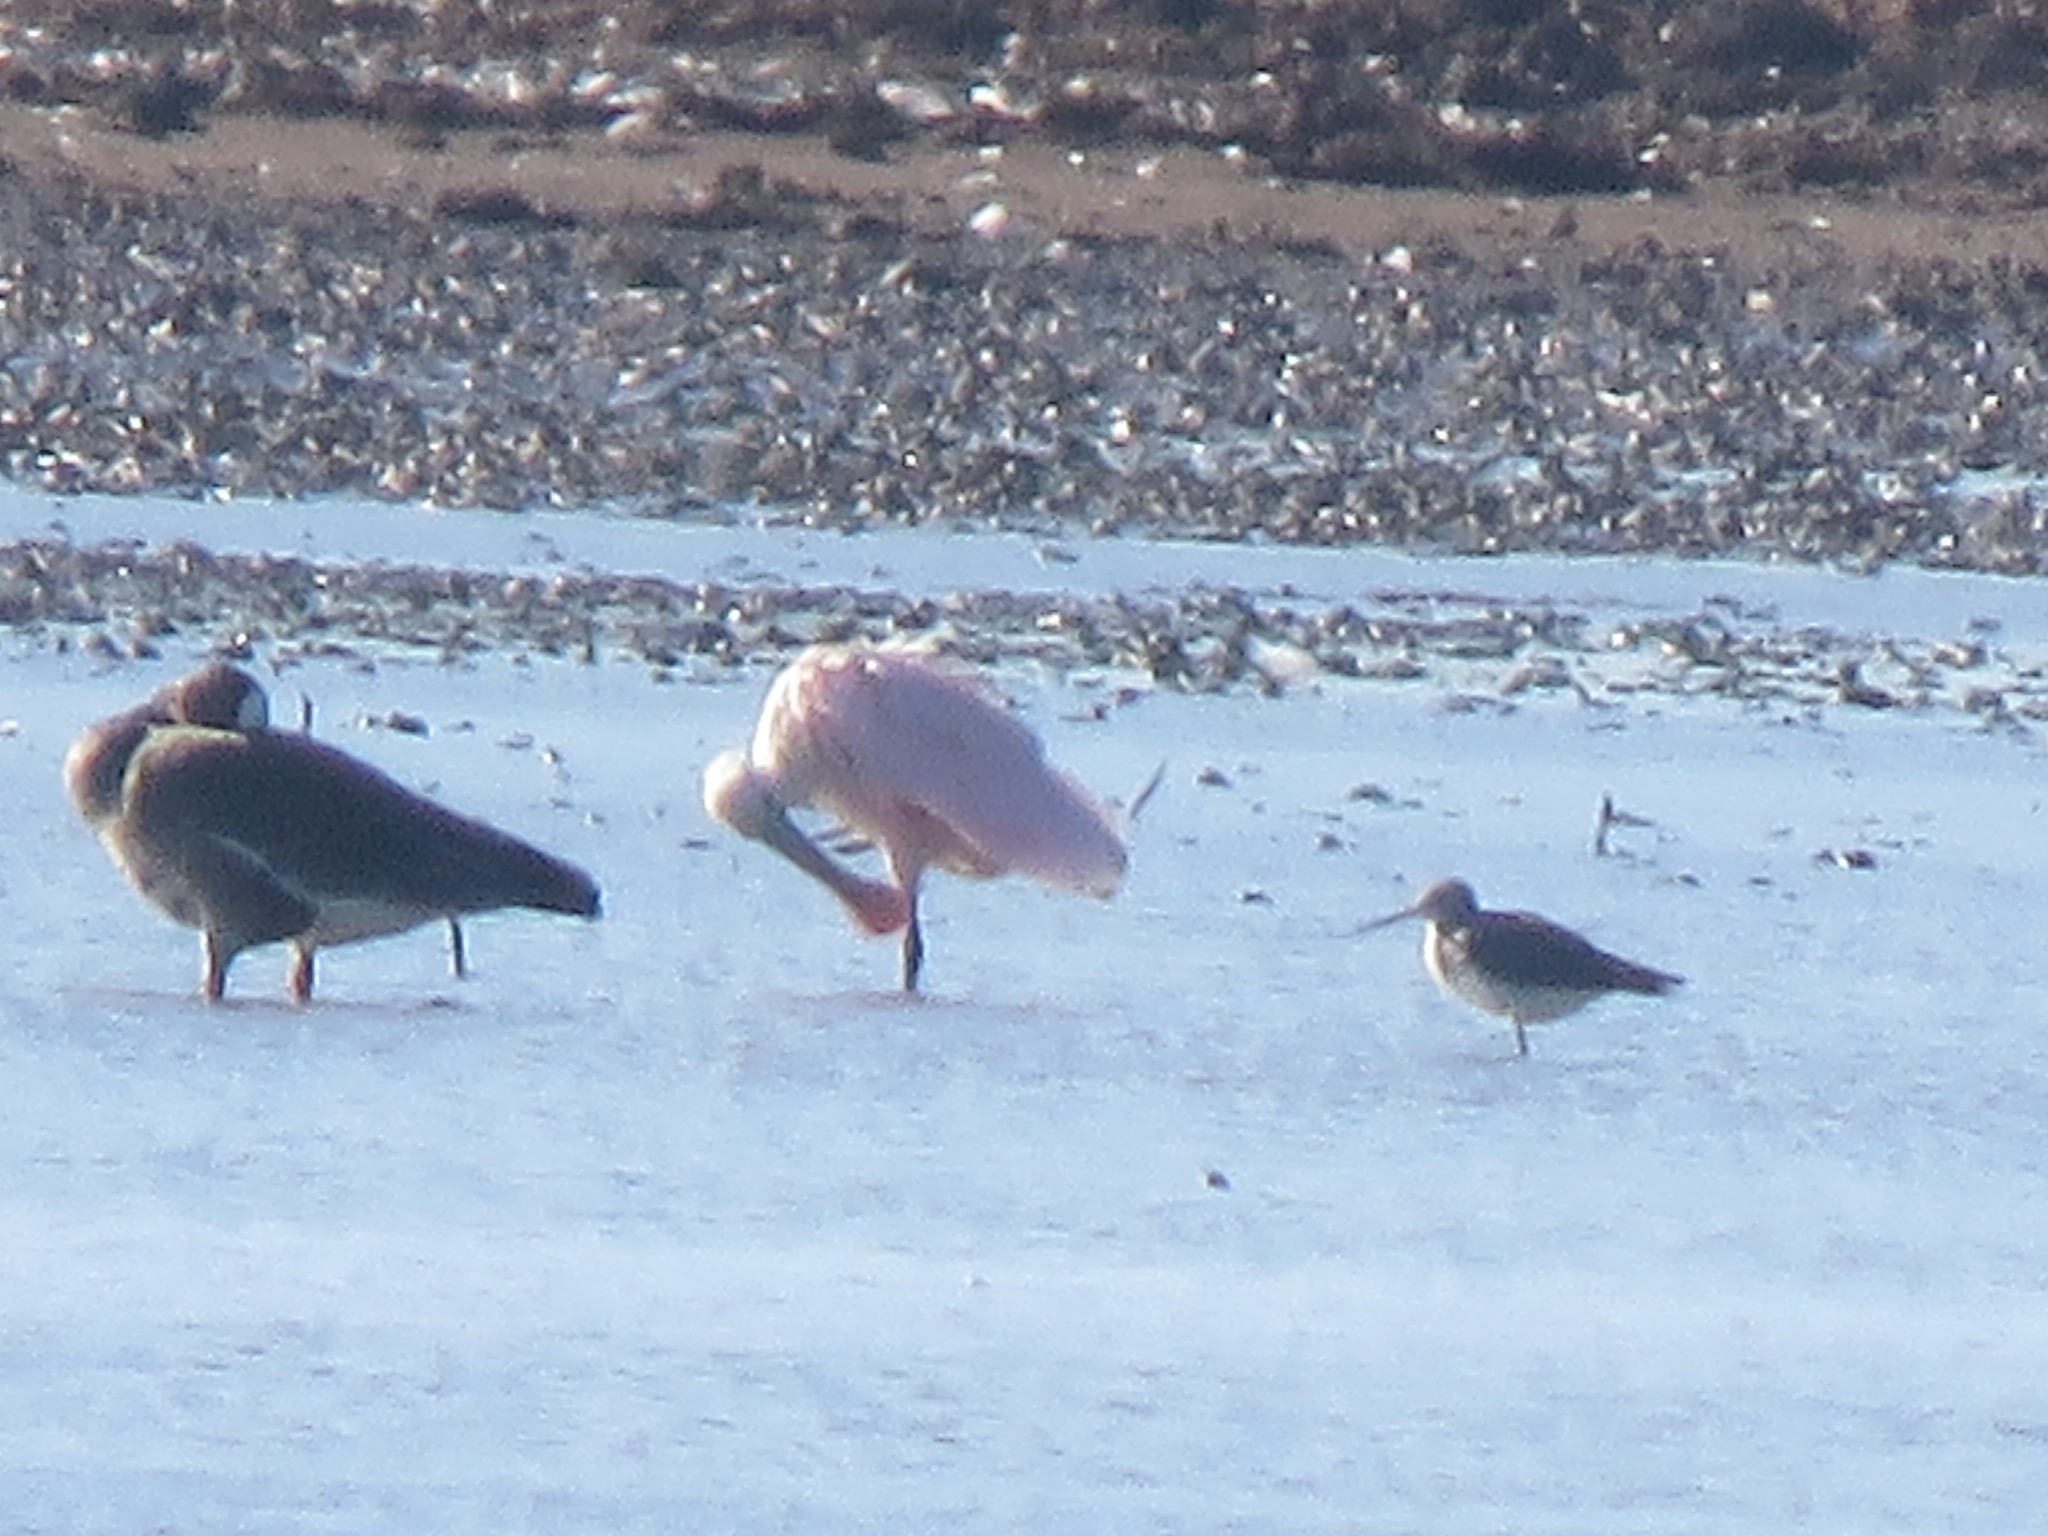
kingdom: Animalia
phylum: Chordata
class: Aves
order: Pelecaniformes
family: Threskiornithidae
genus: Platalea
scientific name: Platalea ajaja
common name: Roseate spoonbill
